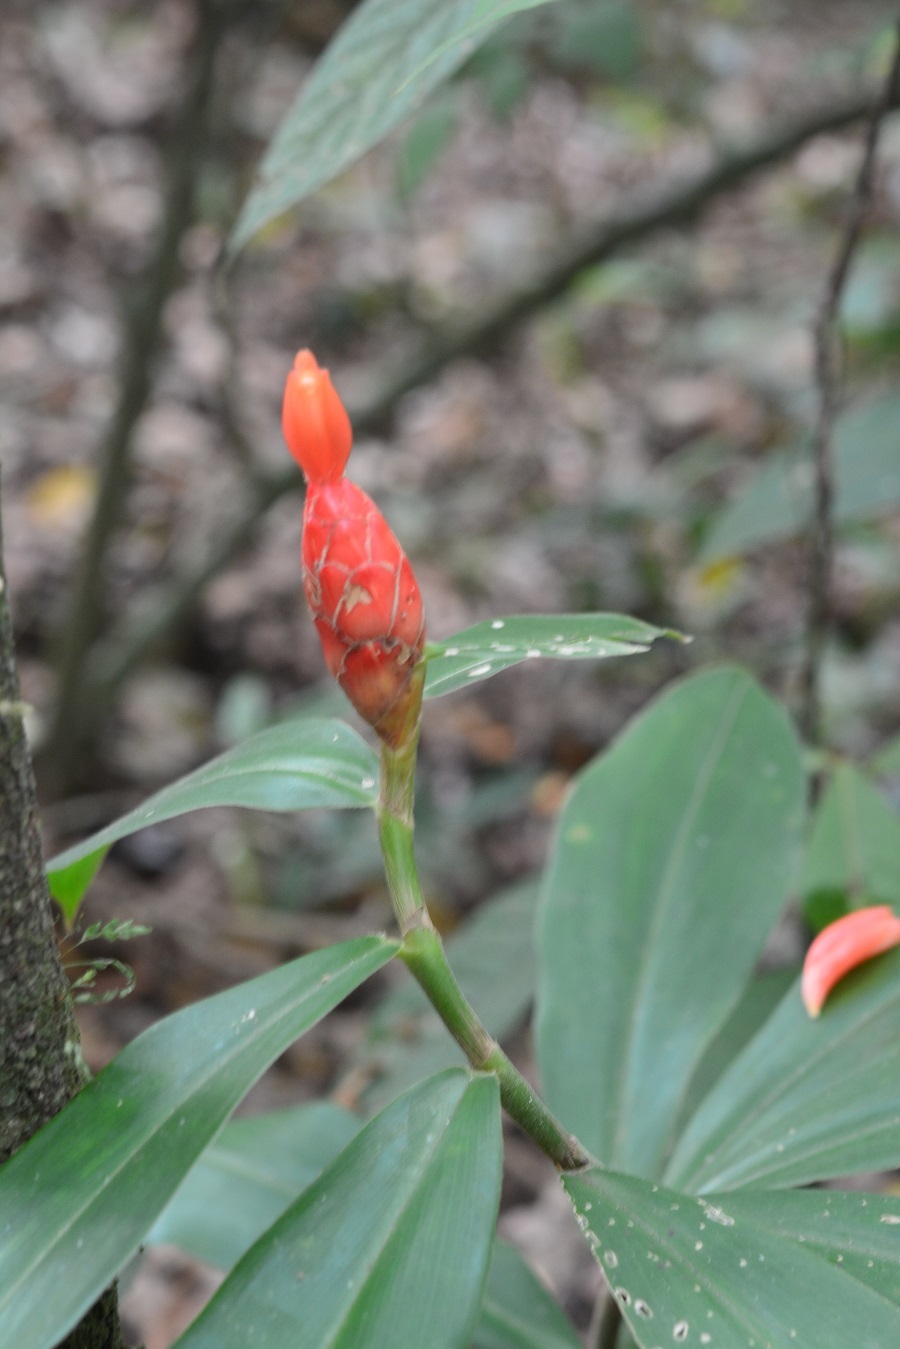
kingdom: Plantae
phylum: Tracheophyta
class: Liliopsida
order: Zingiberales
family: Costaceae
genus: Costus
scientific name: Costus pulverulentus
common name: Spiral ginger
